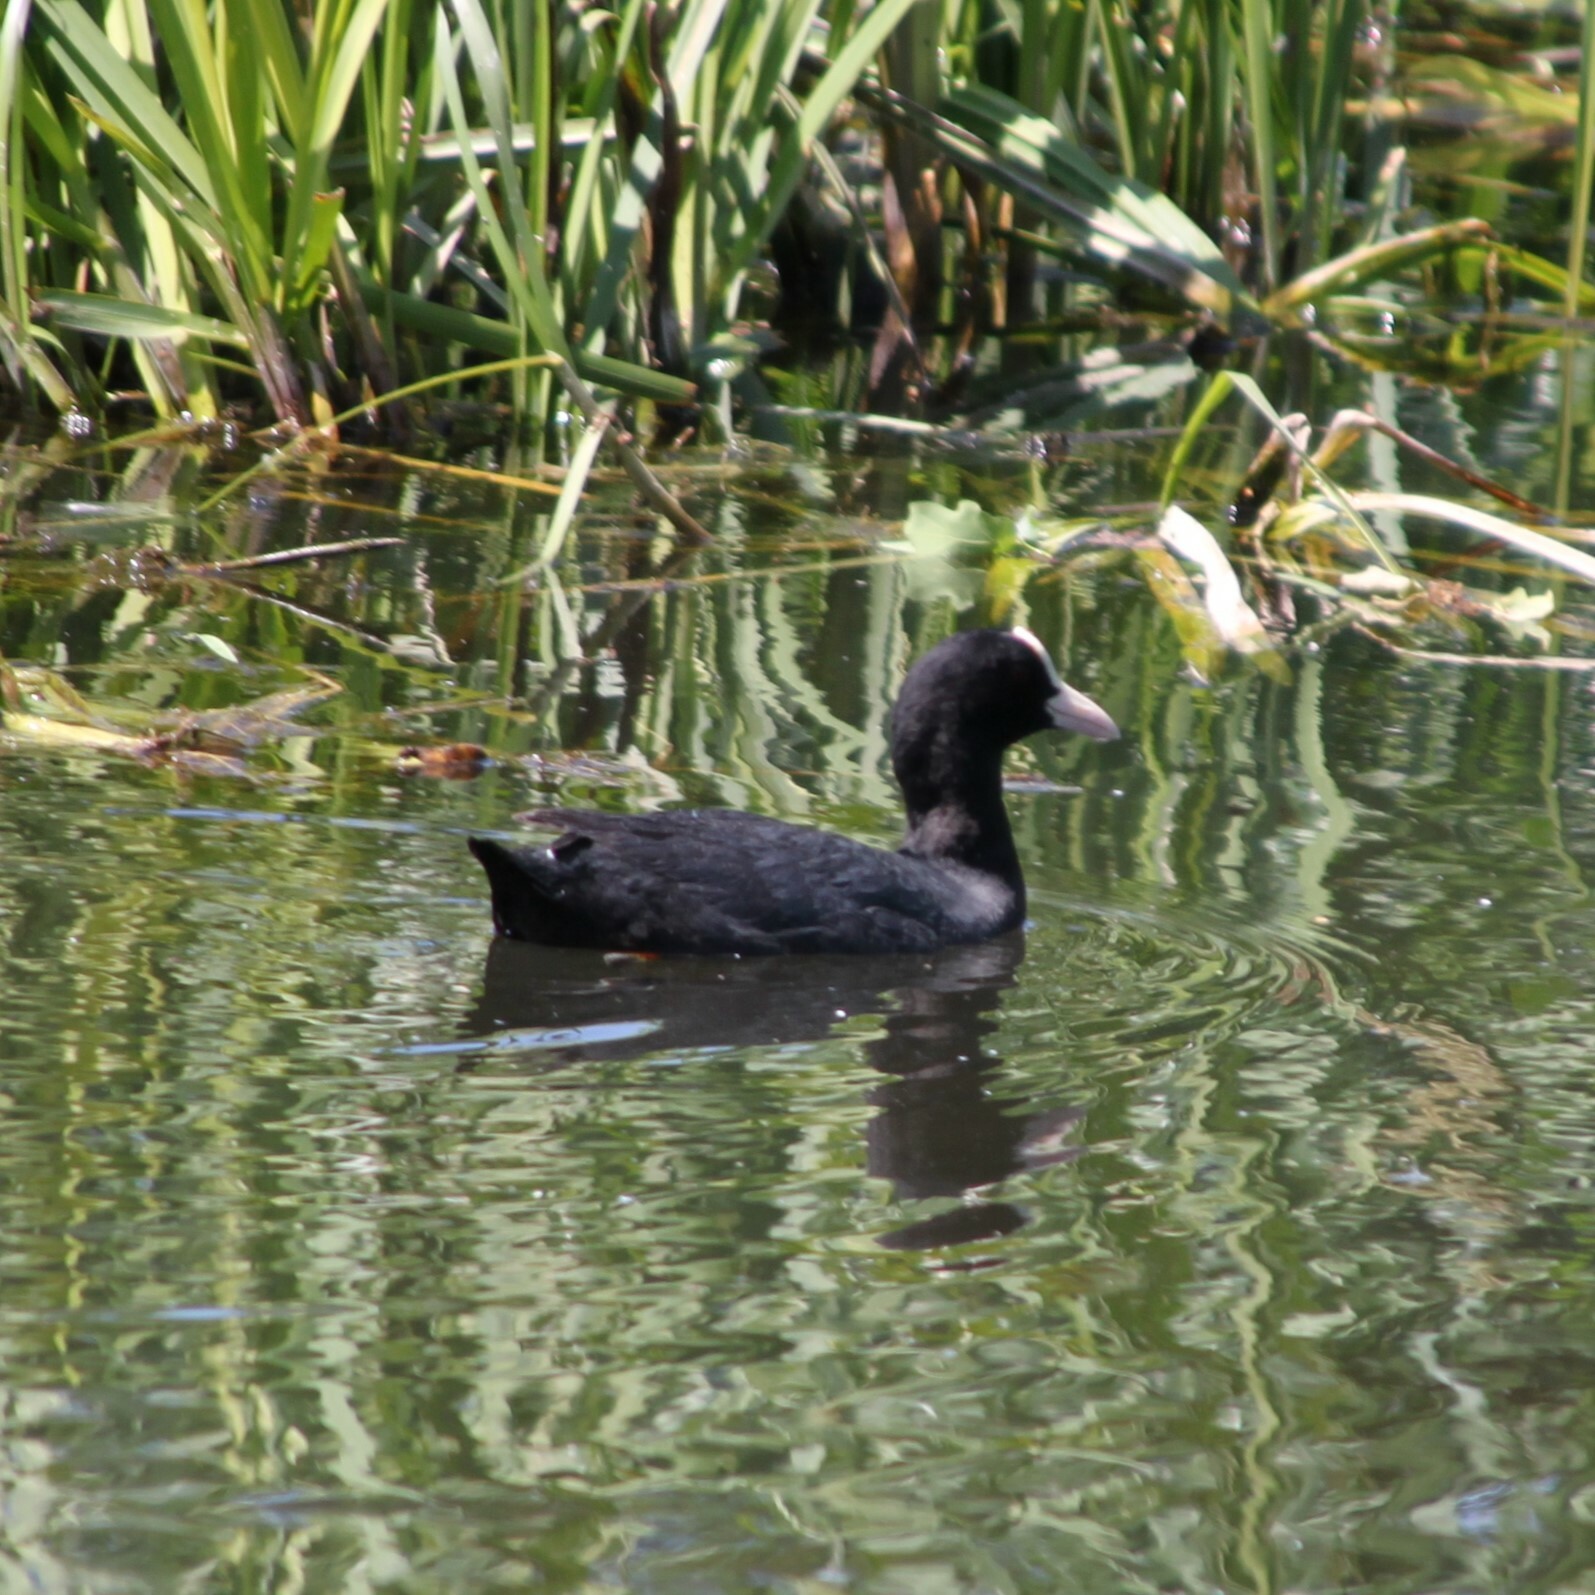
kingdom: Animalia
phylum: Chordata
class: Aves
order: Gruiformes
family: Rallidae
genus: Fulica
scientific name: Fulica atra
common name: Eurasian coot
